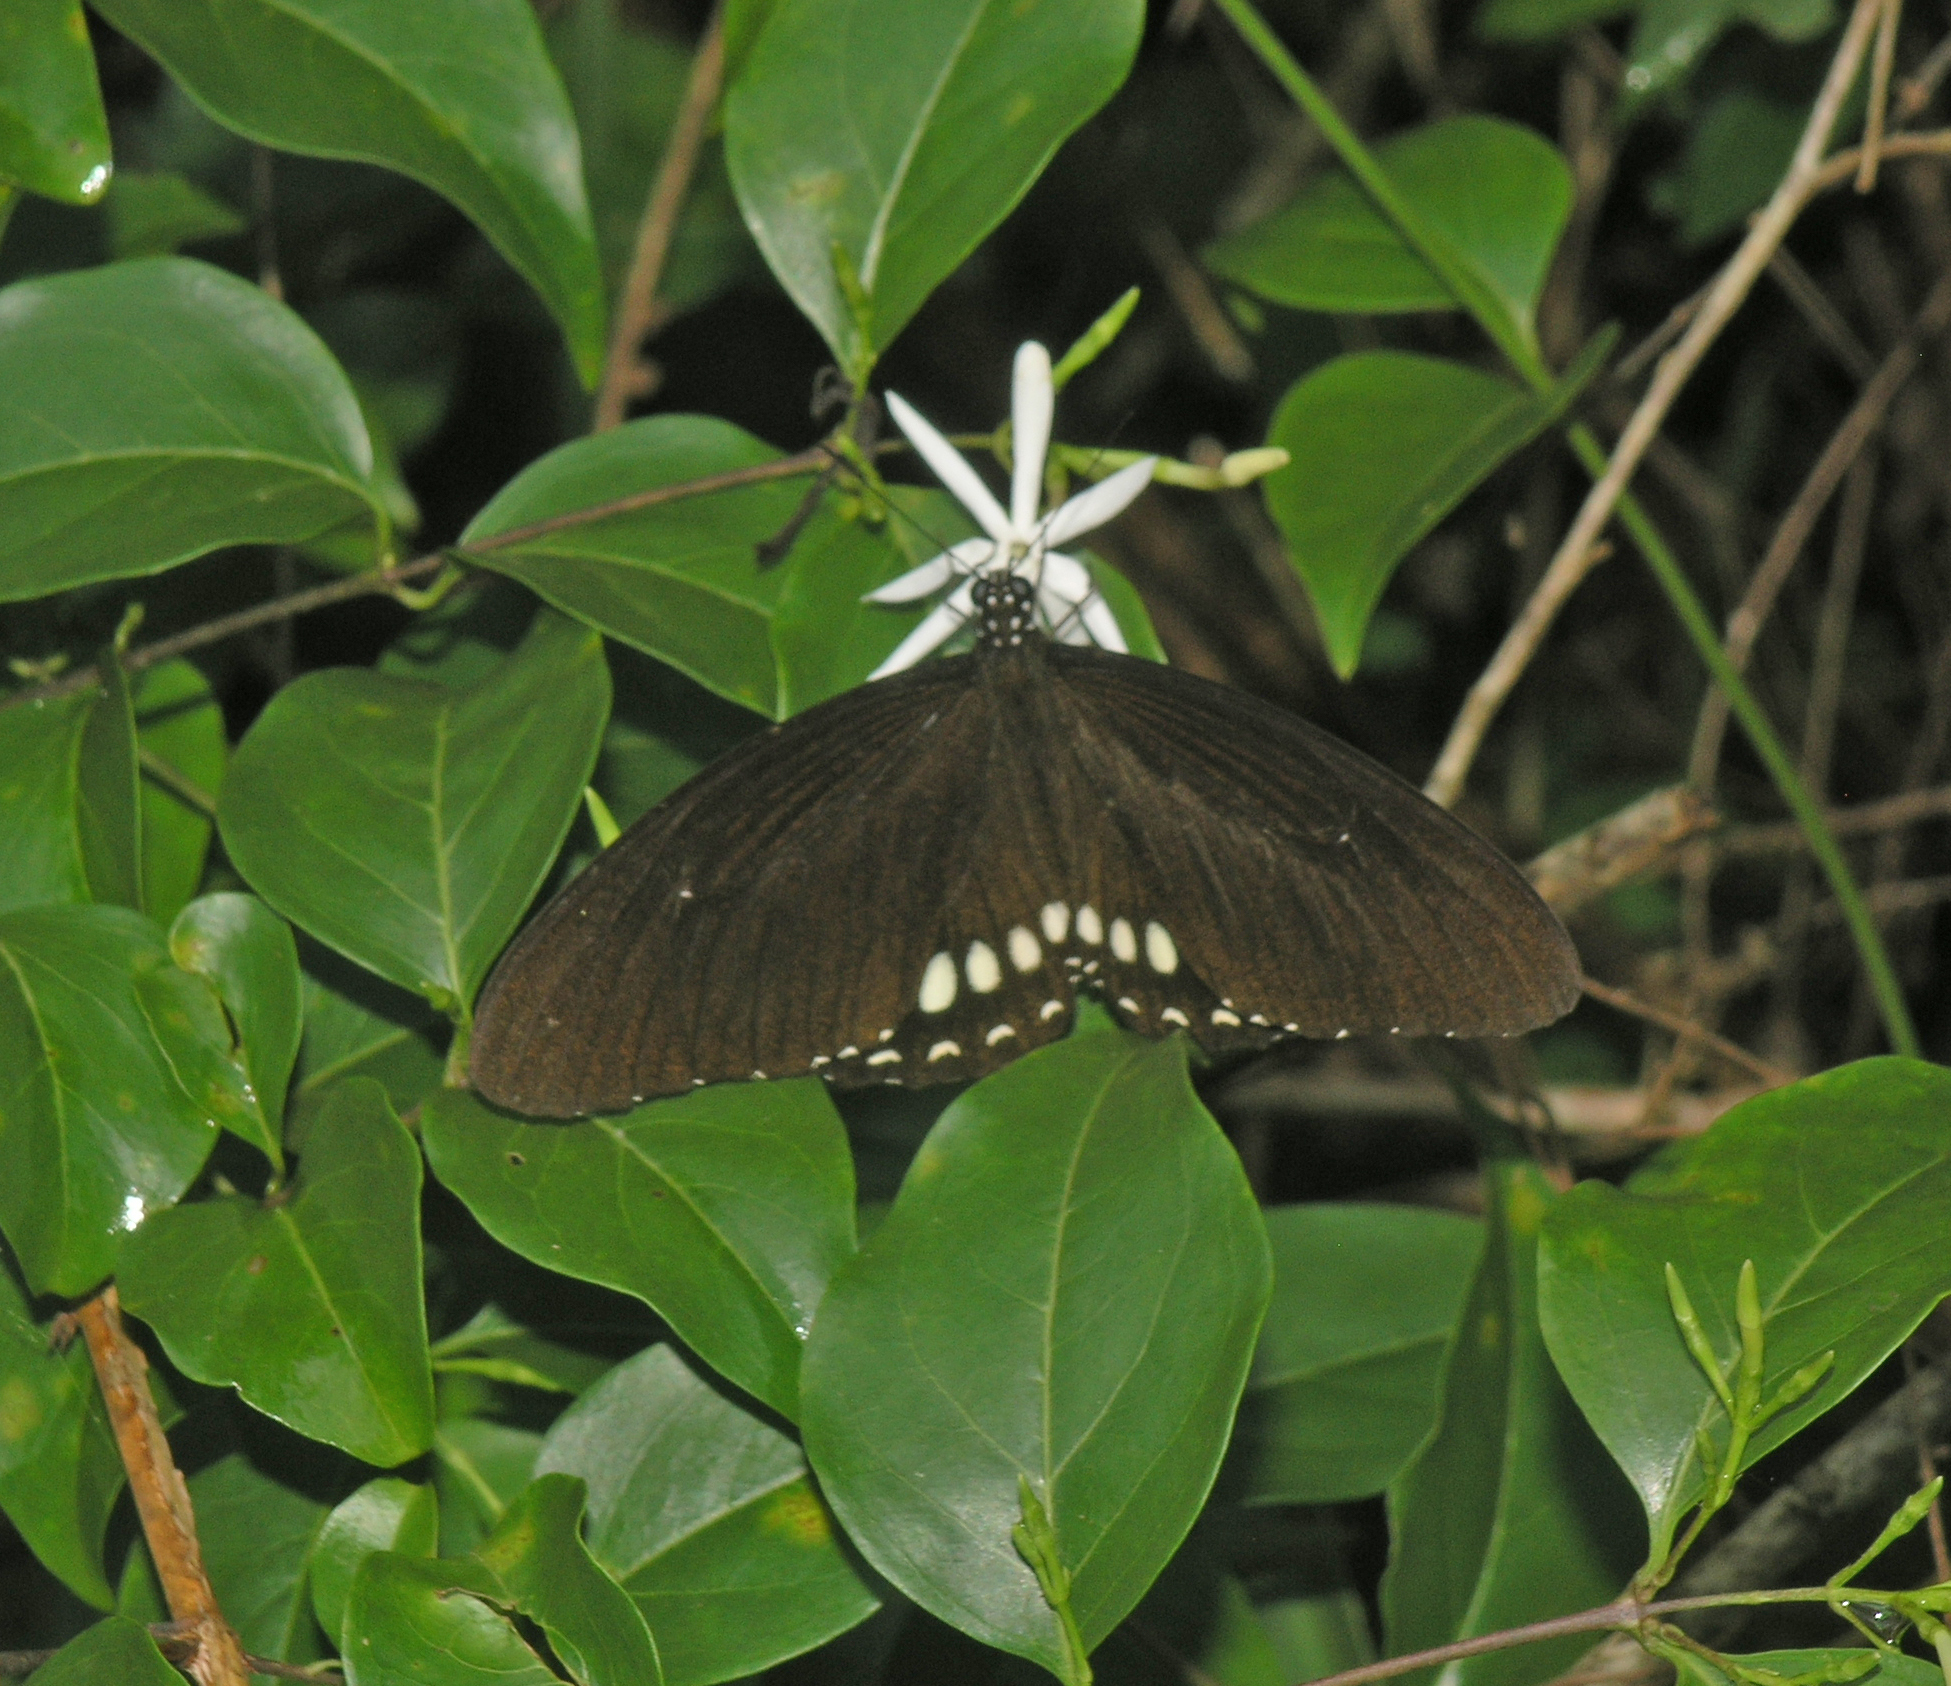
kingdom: Animalia
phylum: Arthropoda
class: Insecta
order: Lepidoptera
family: Papilionidae
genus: Papilio
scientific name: Papilio castor
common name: Common raven
